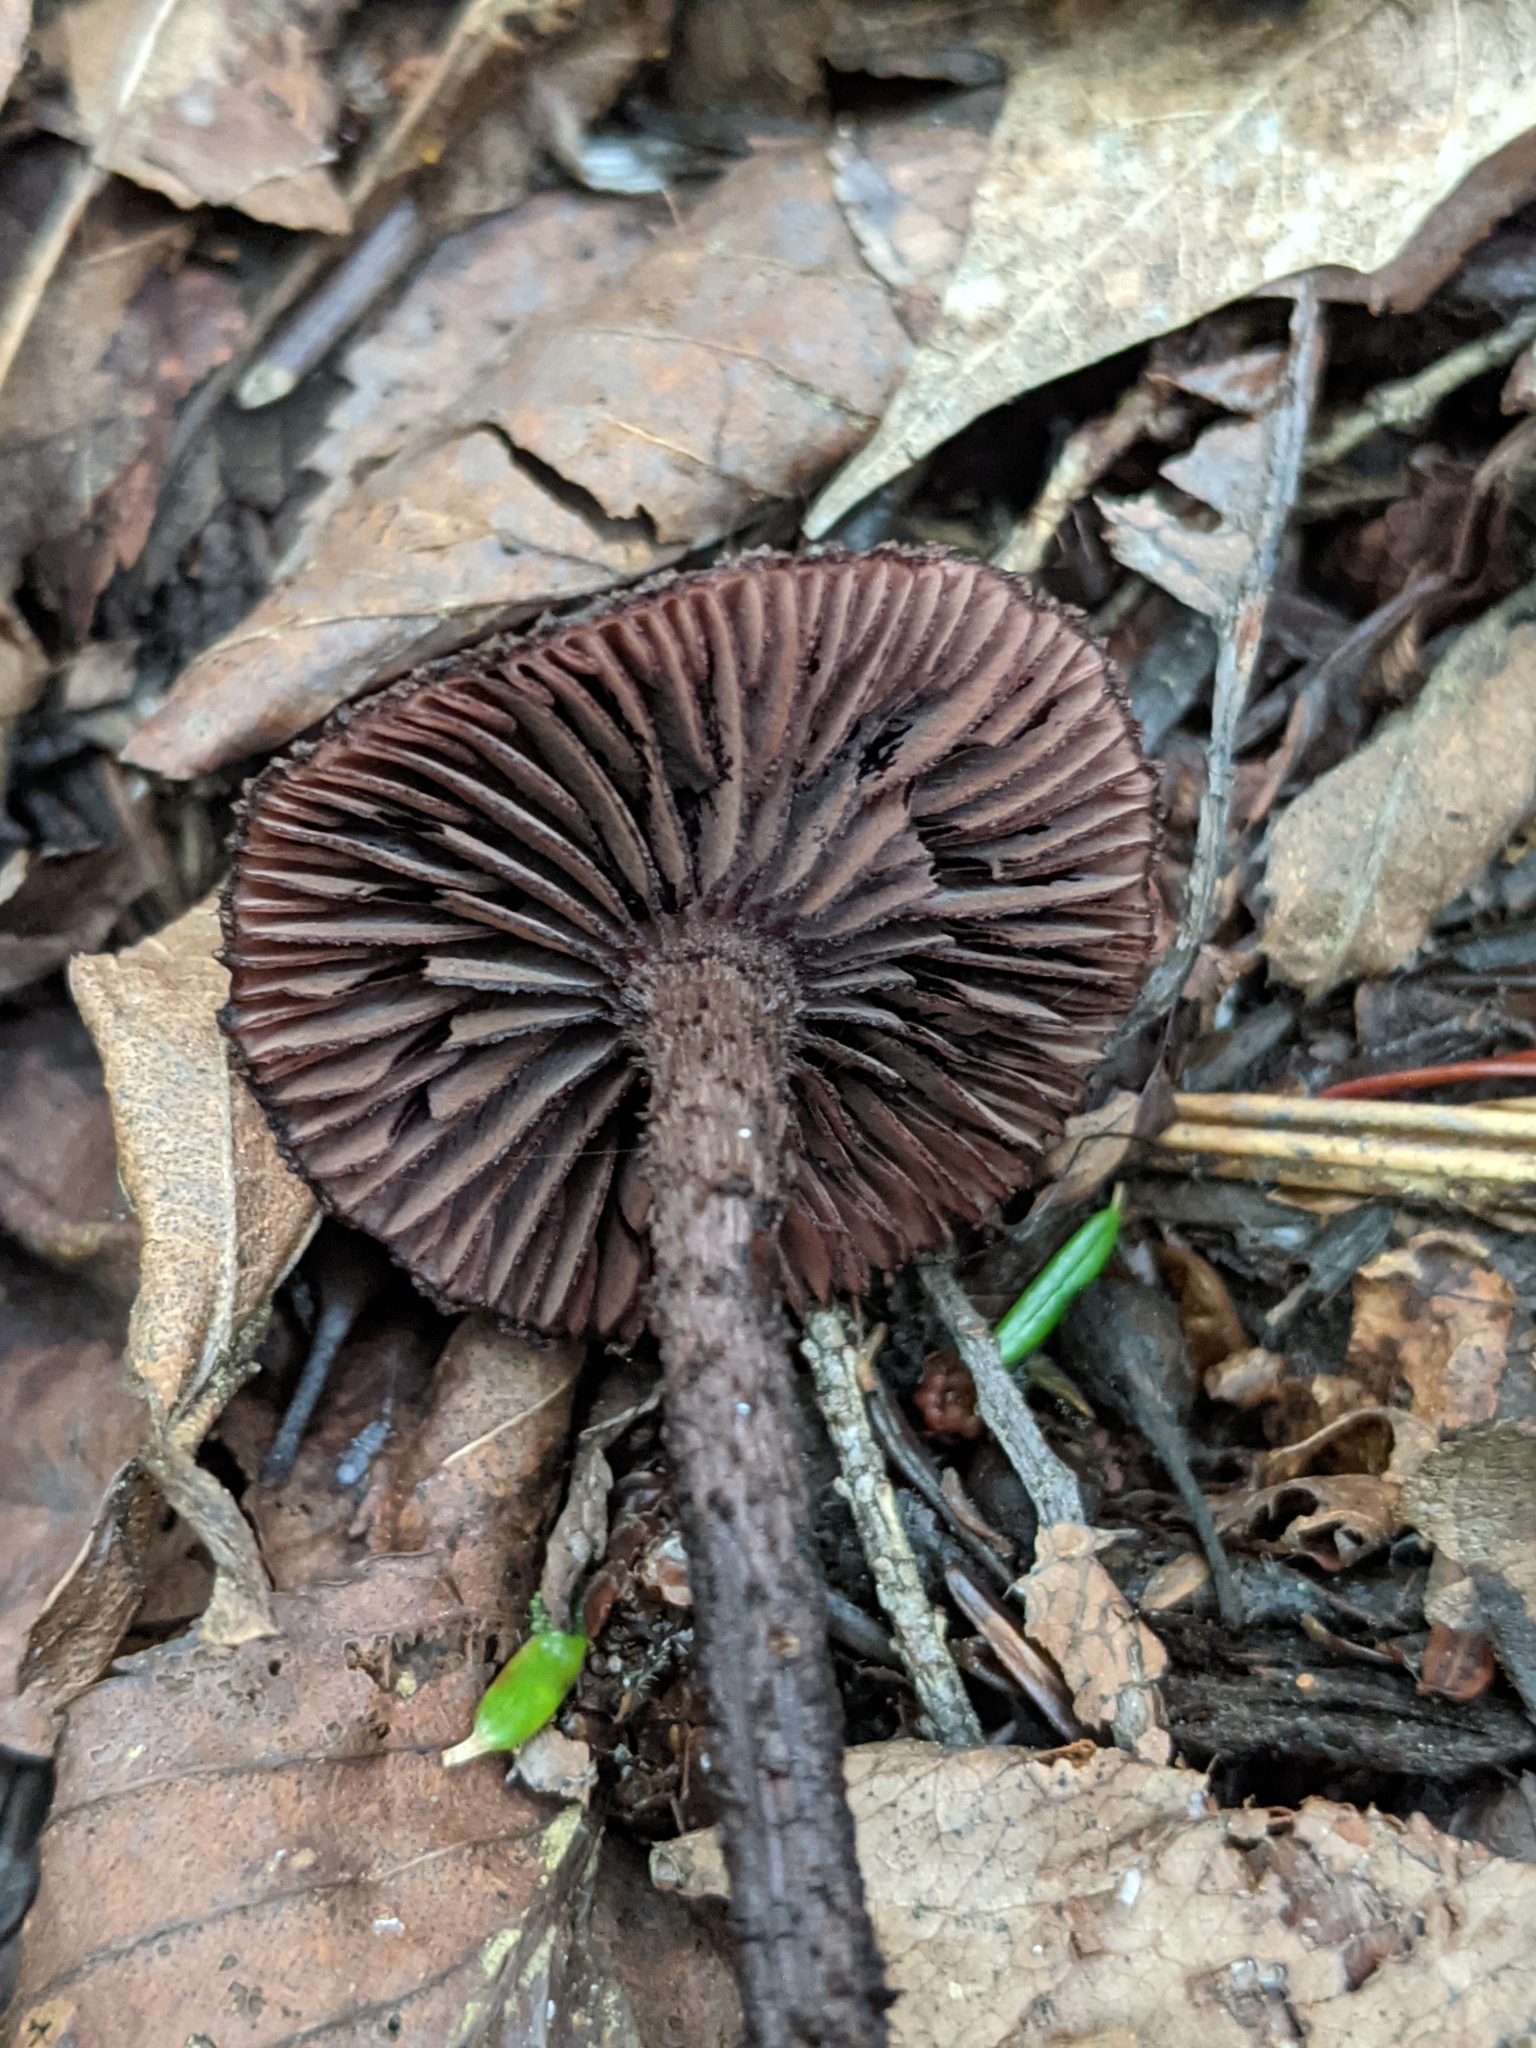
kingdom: Fungi
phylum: Basidiomycota
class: Agaricomycetes
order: Agaricales
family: Inocybaceae
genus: Inocybe
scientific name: Inocybe tahquamenonensis
